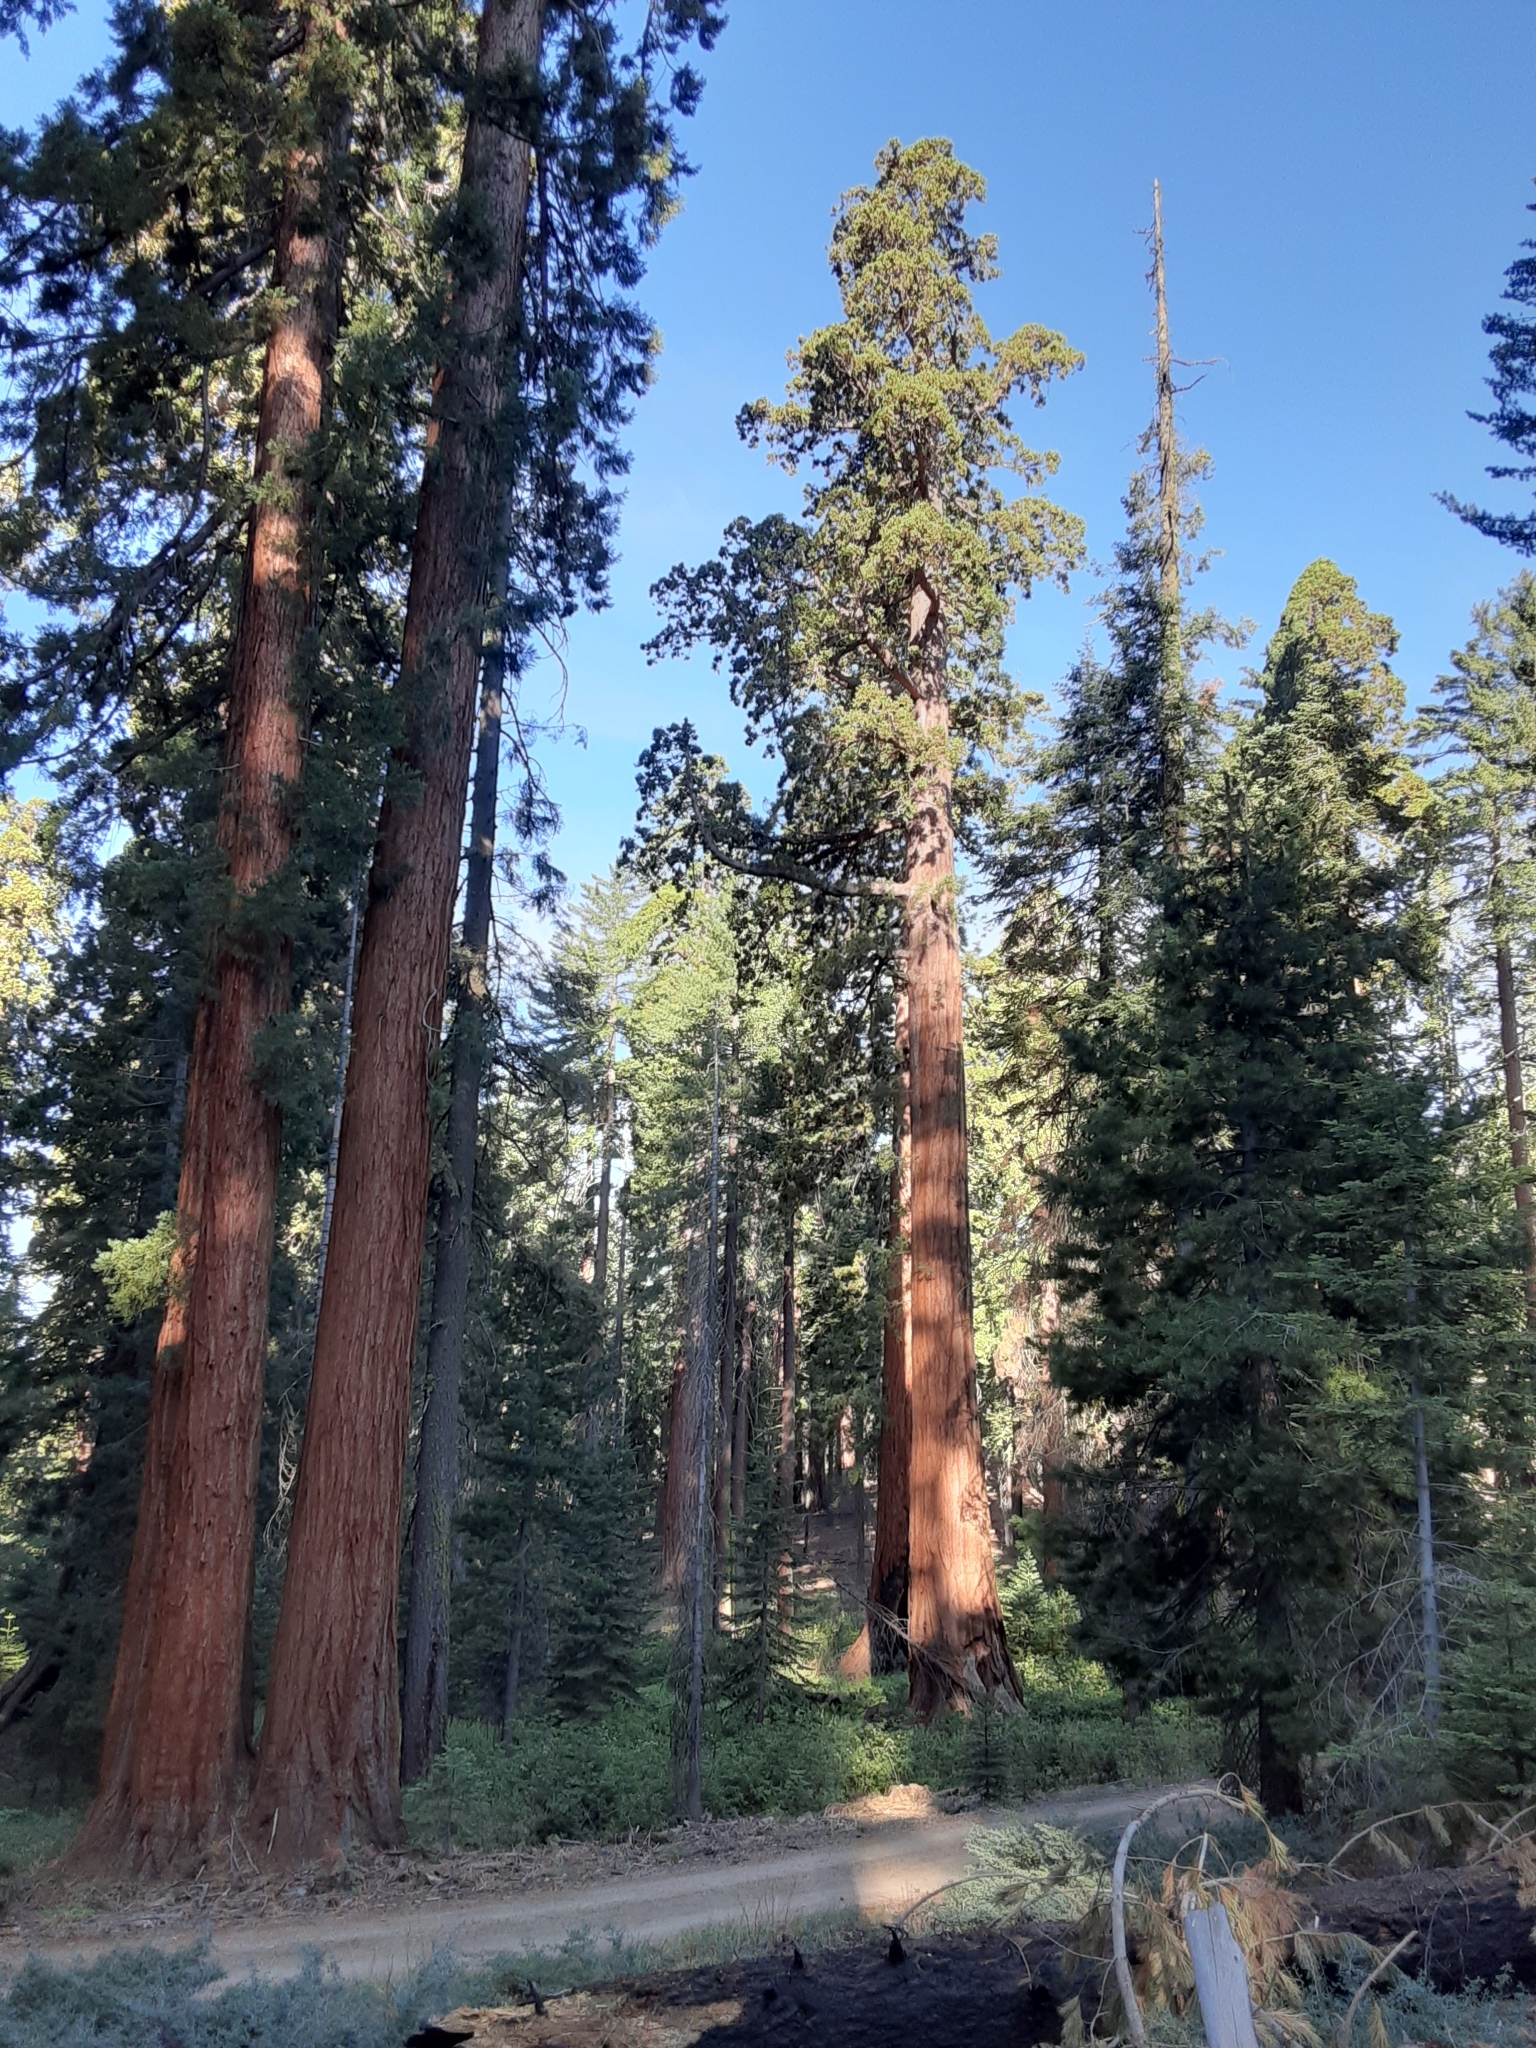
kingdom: Plantae
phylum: Tracheophyta
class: Pinopsida
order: Pinales
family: Cupressaceae
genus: Sequoiadendron
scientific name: Sequoiadendron giganteum
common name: Wellingtonia
